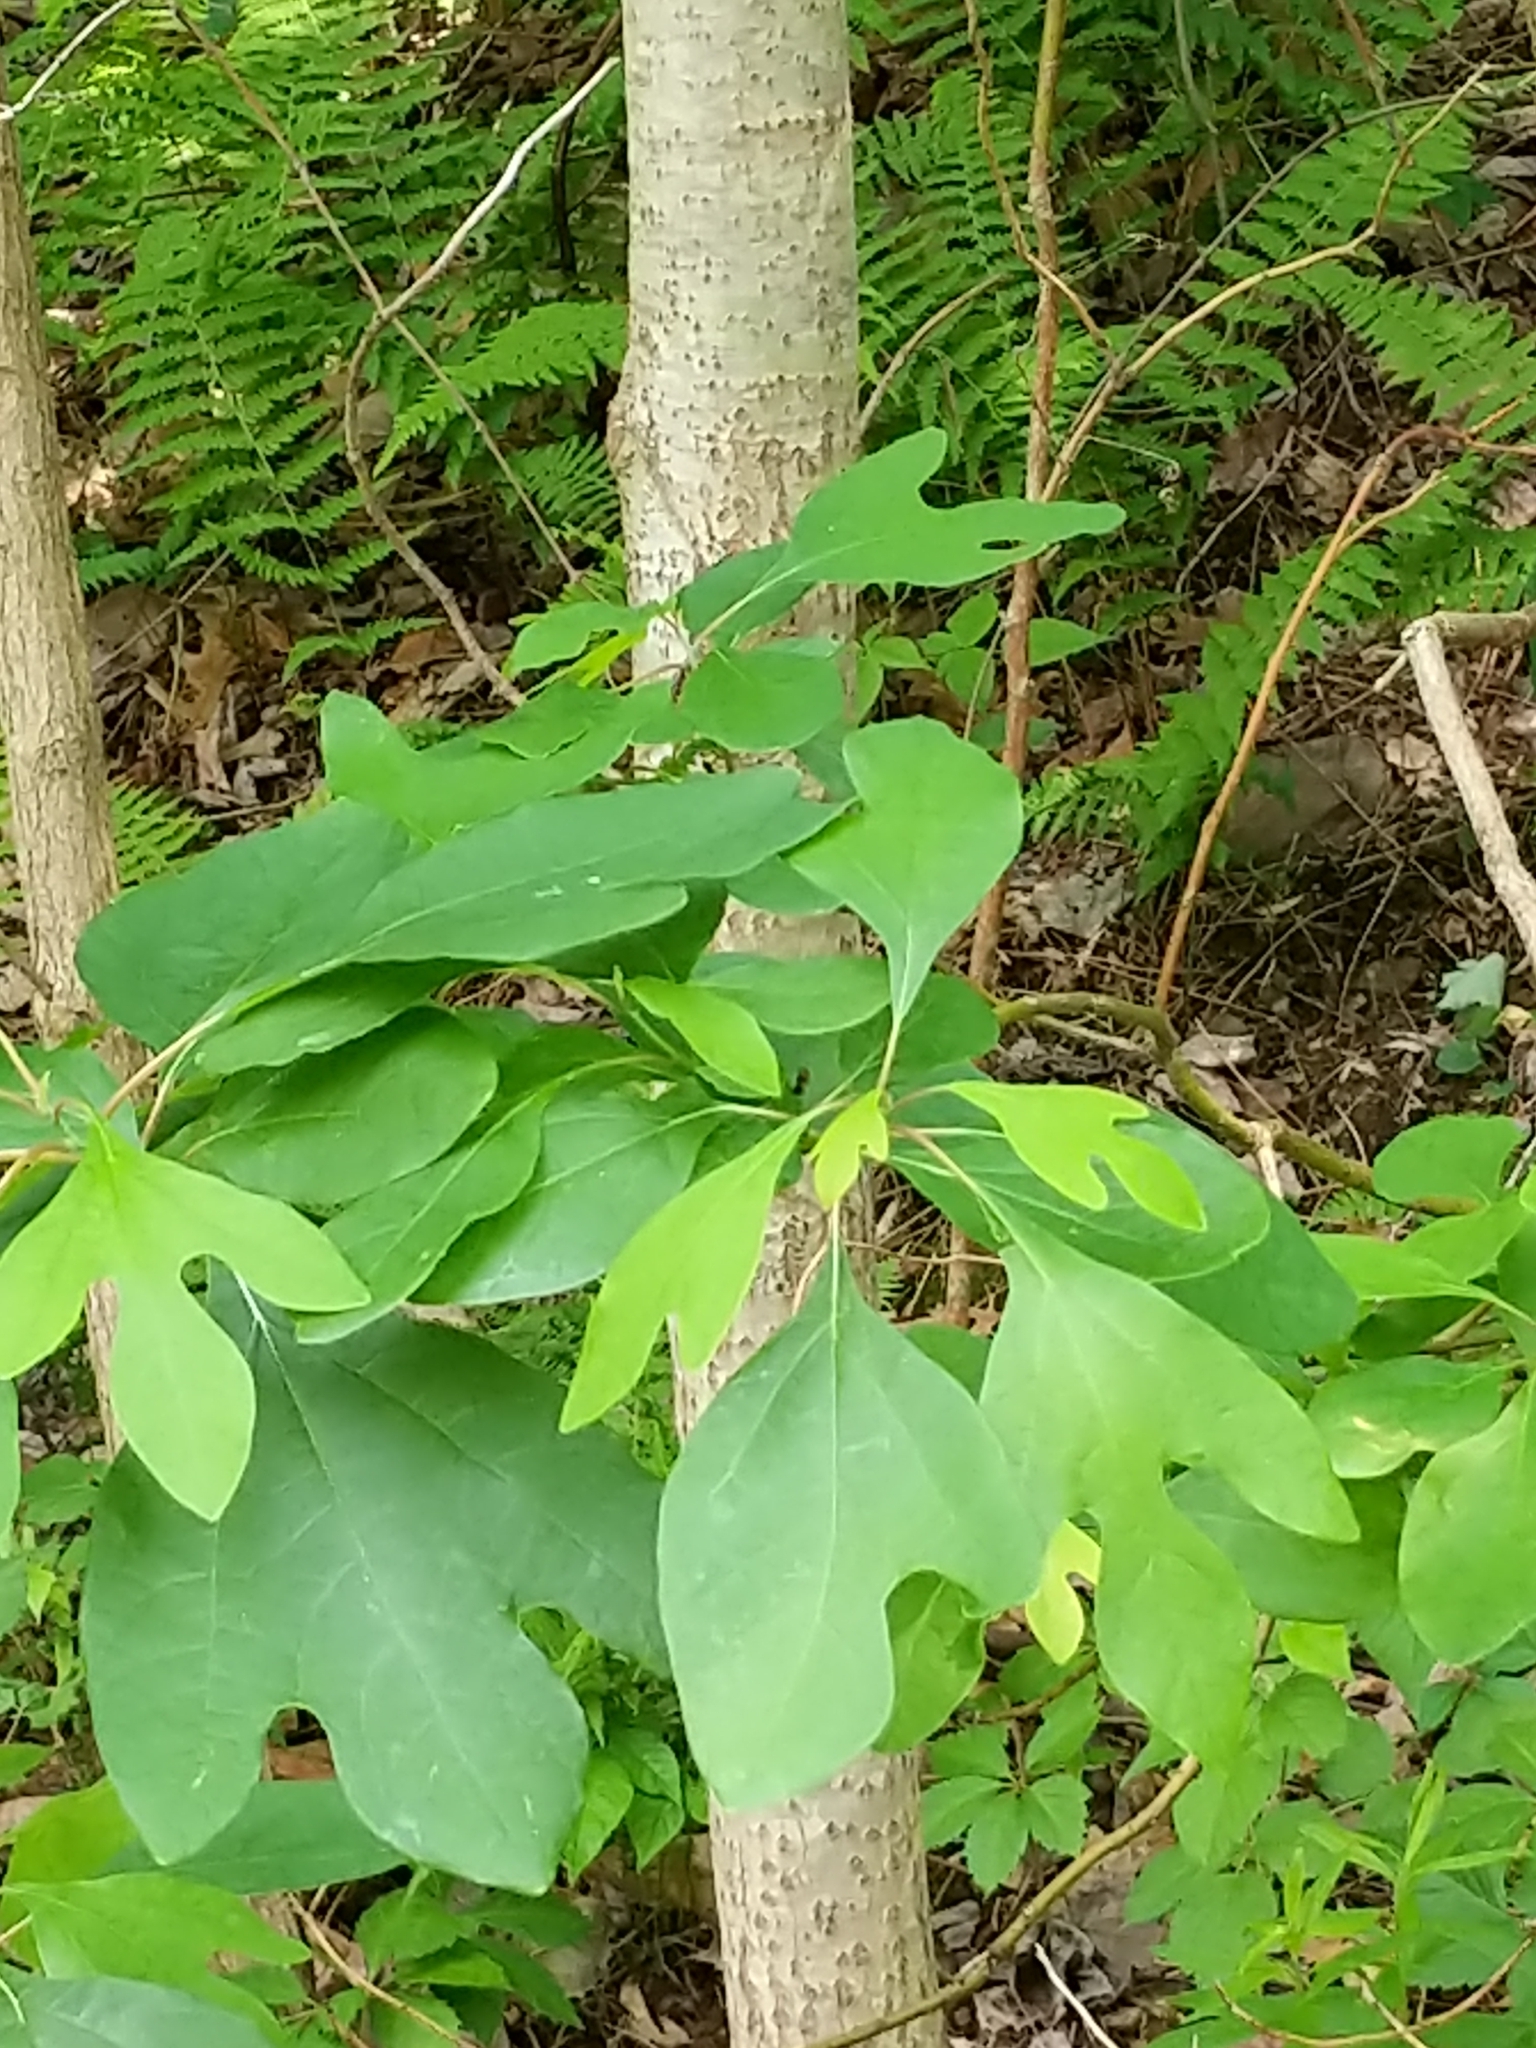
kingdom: Plantae
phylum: Tracheophyta
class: Magnoliopsida
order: Laurales
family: Lauraceae
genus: Sassafras
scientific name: Sassafras albidum
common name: Sassafras
